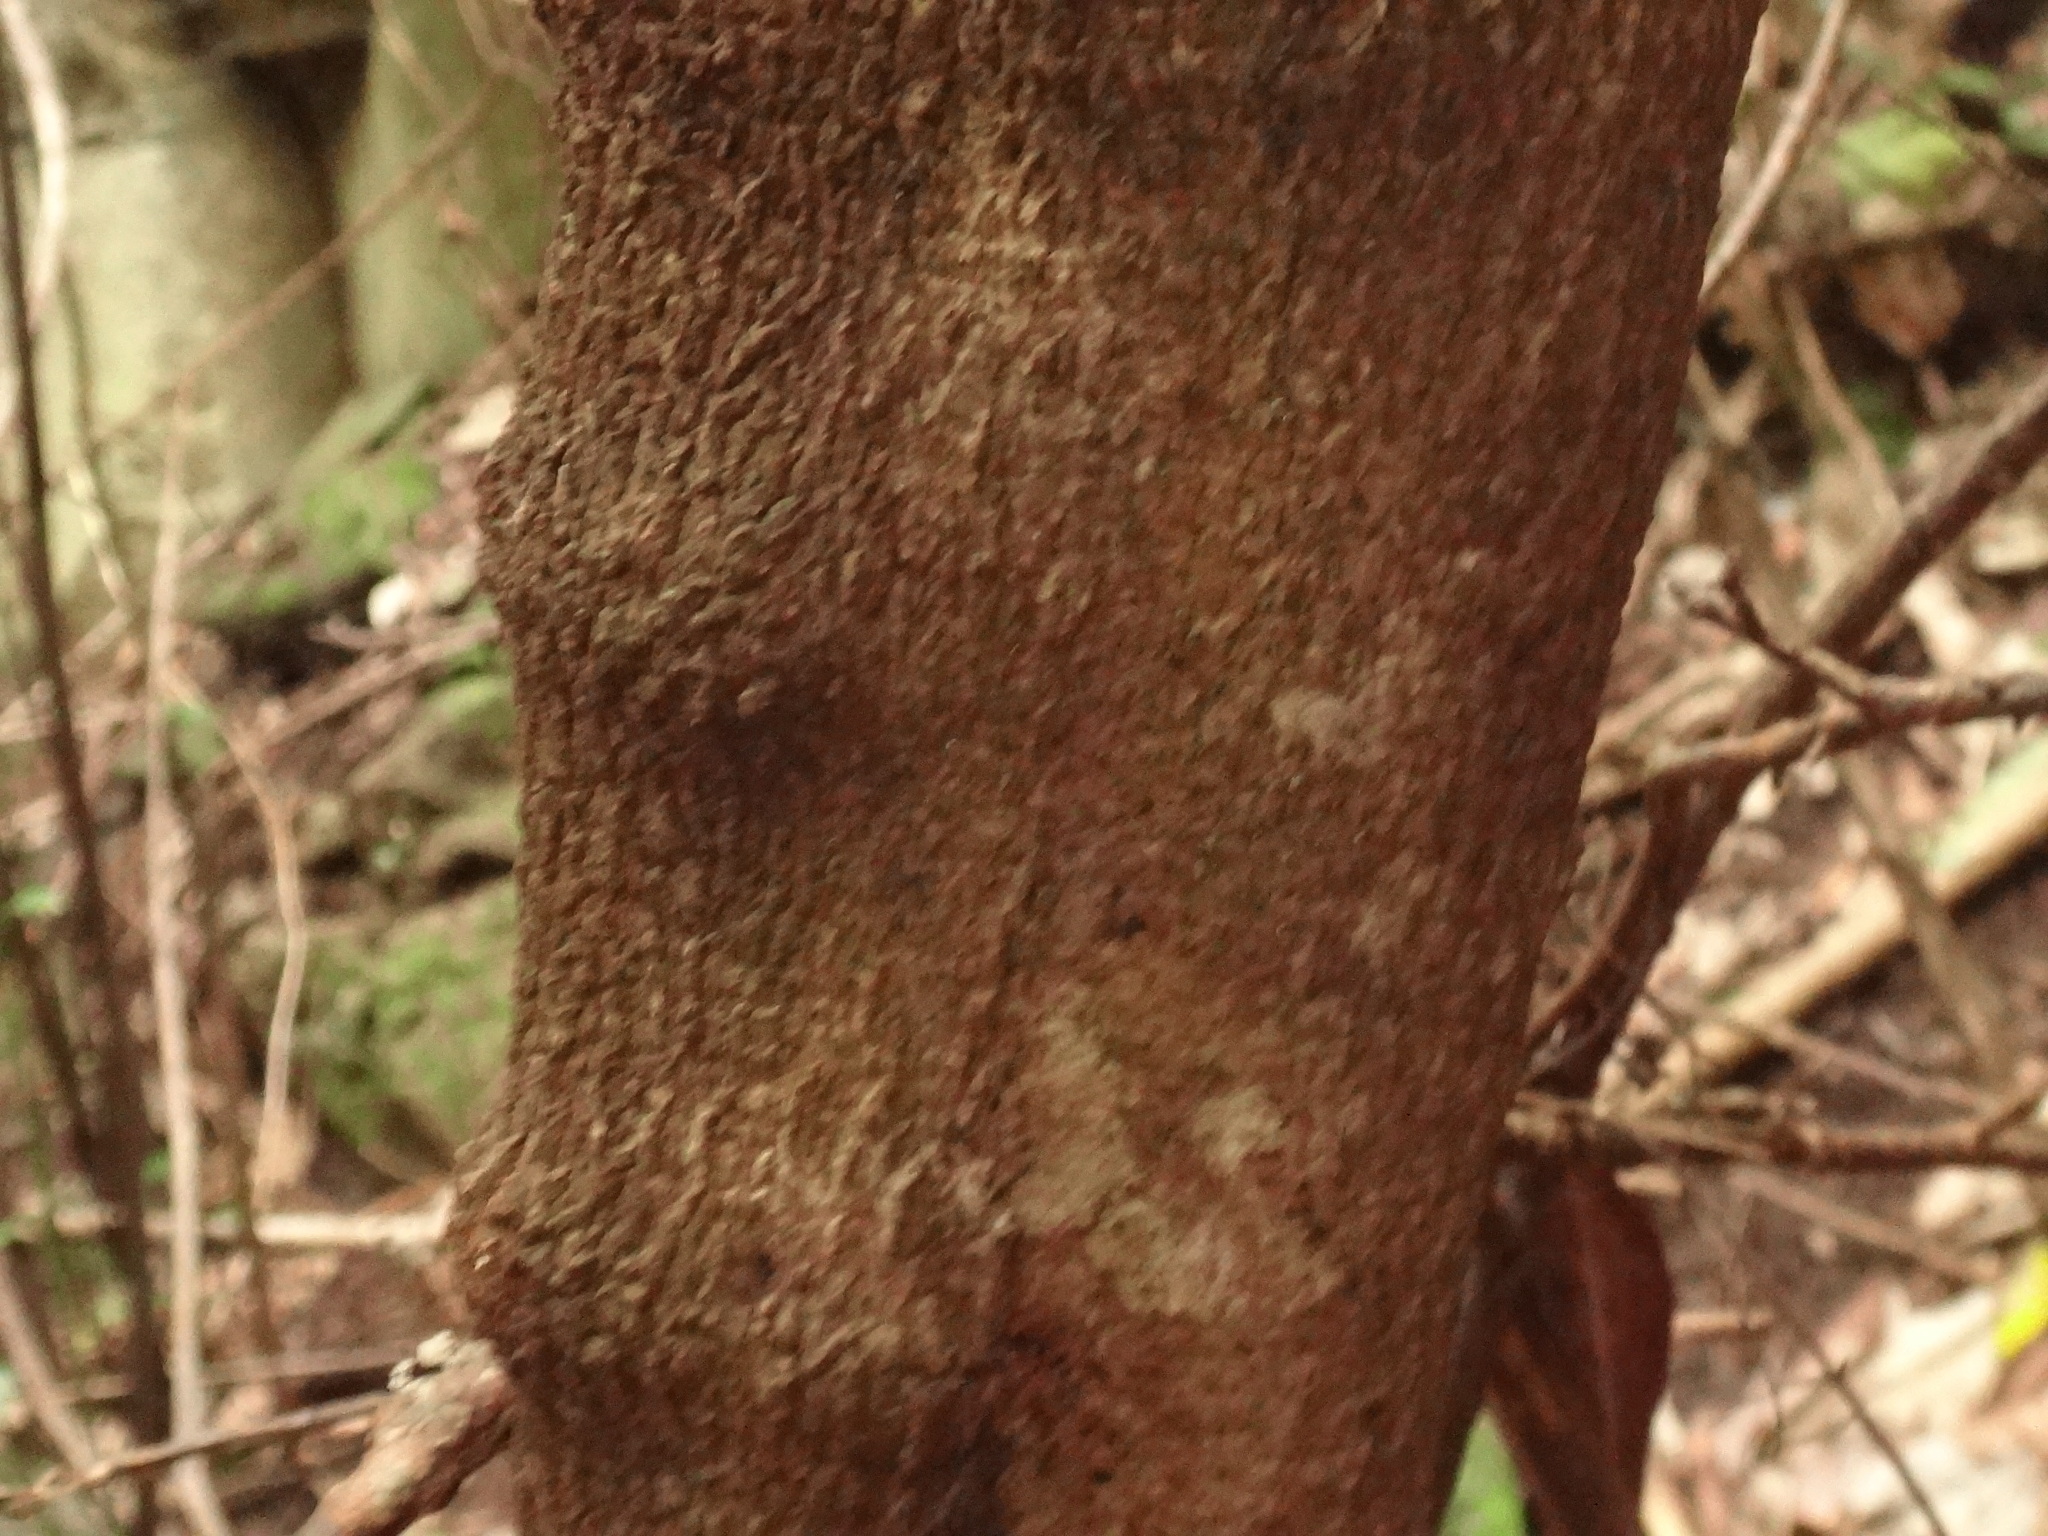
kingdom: Plantae
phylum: Tracheophyta
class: Magnoliopsida
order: Ericales
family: Pentaphylacaceae
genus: Visnea
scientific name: Visnea mocanera
